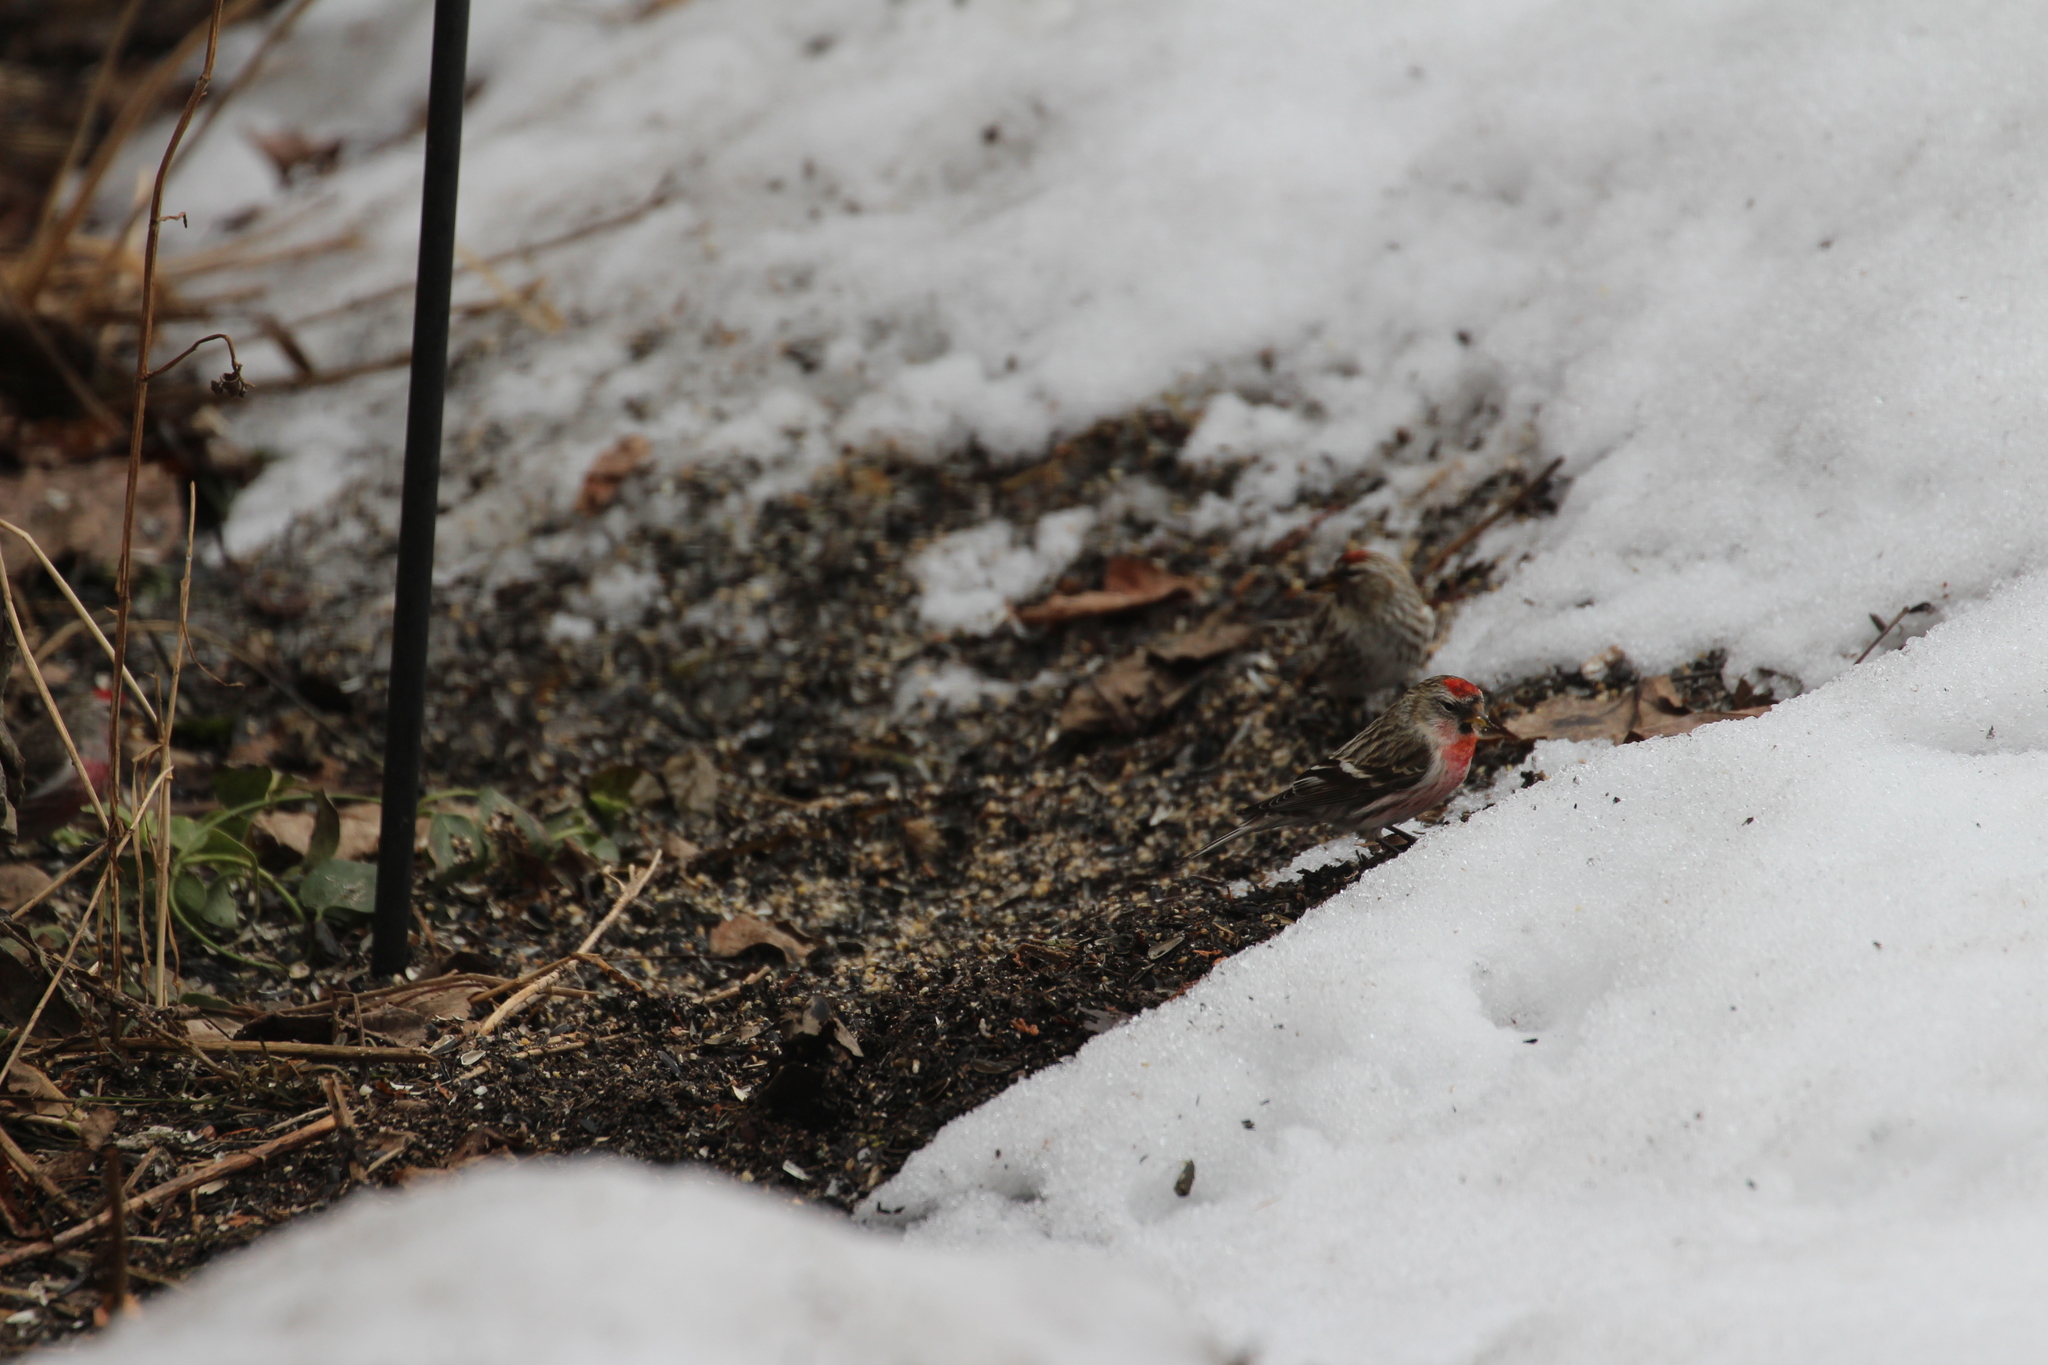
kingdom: Animalia
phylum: Chordata
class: Aves
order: Passeriformes
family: Fringillidae
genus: Acanthis
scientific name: Acanthis flammea
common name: Common redpoll
